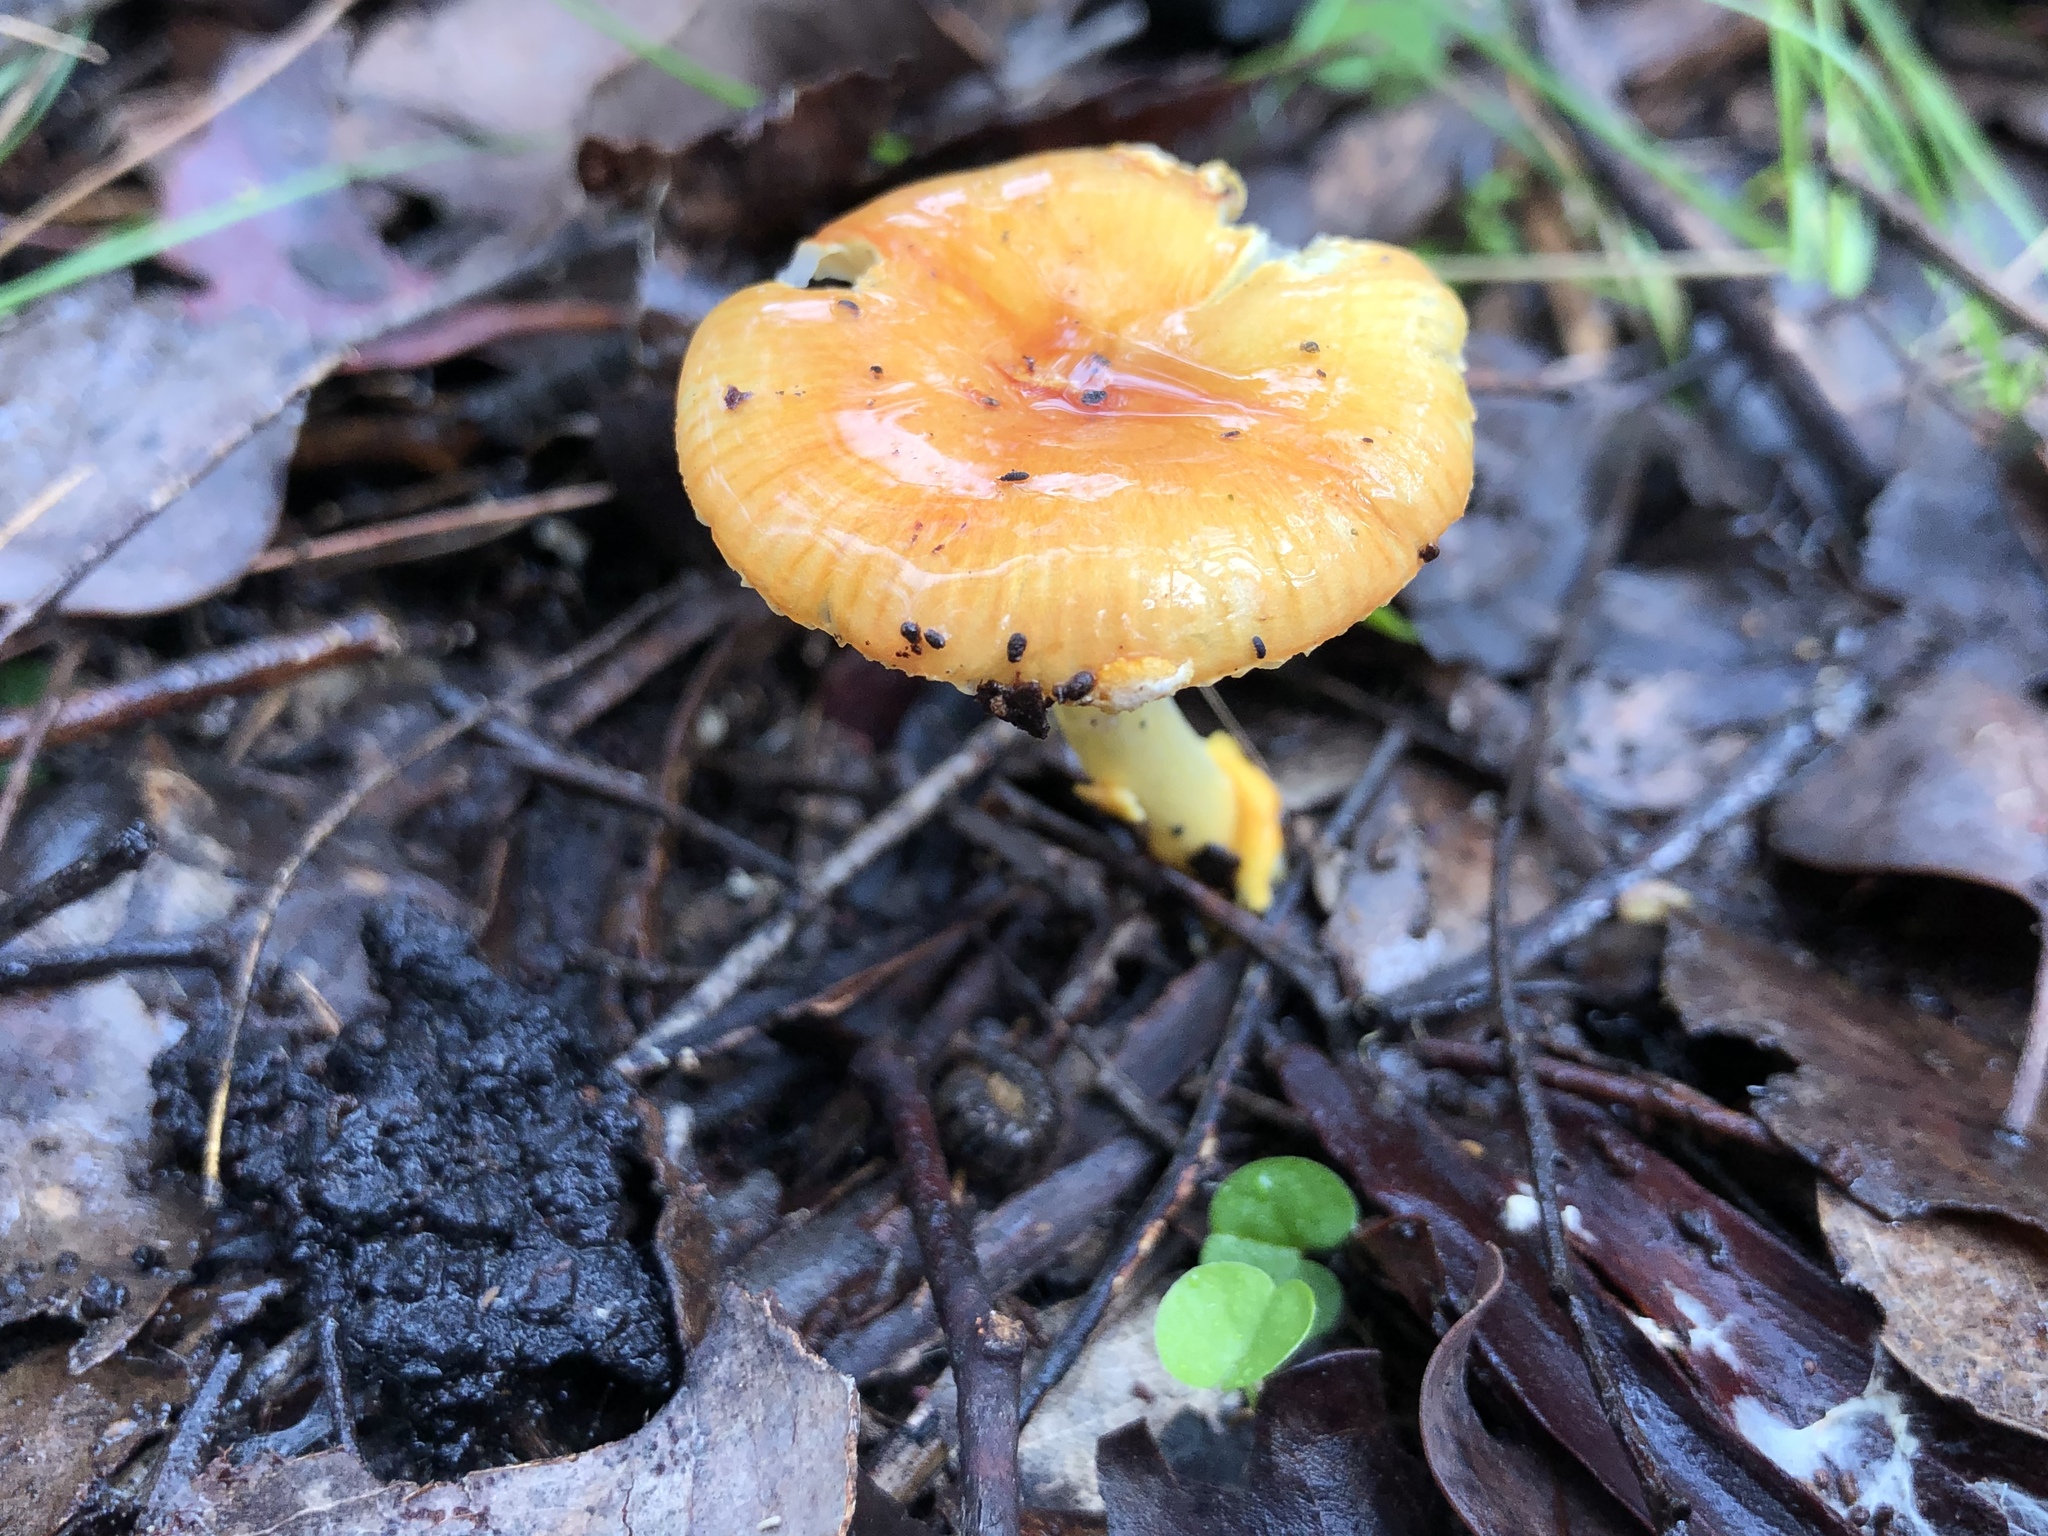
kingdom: Fungi
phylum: Basidiomycota
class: Agaricomycetes
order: Agaricales
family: Amanitaceae
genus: Amanita
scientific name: Amanita xanthocephala
